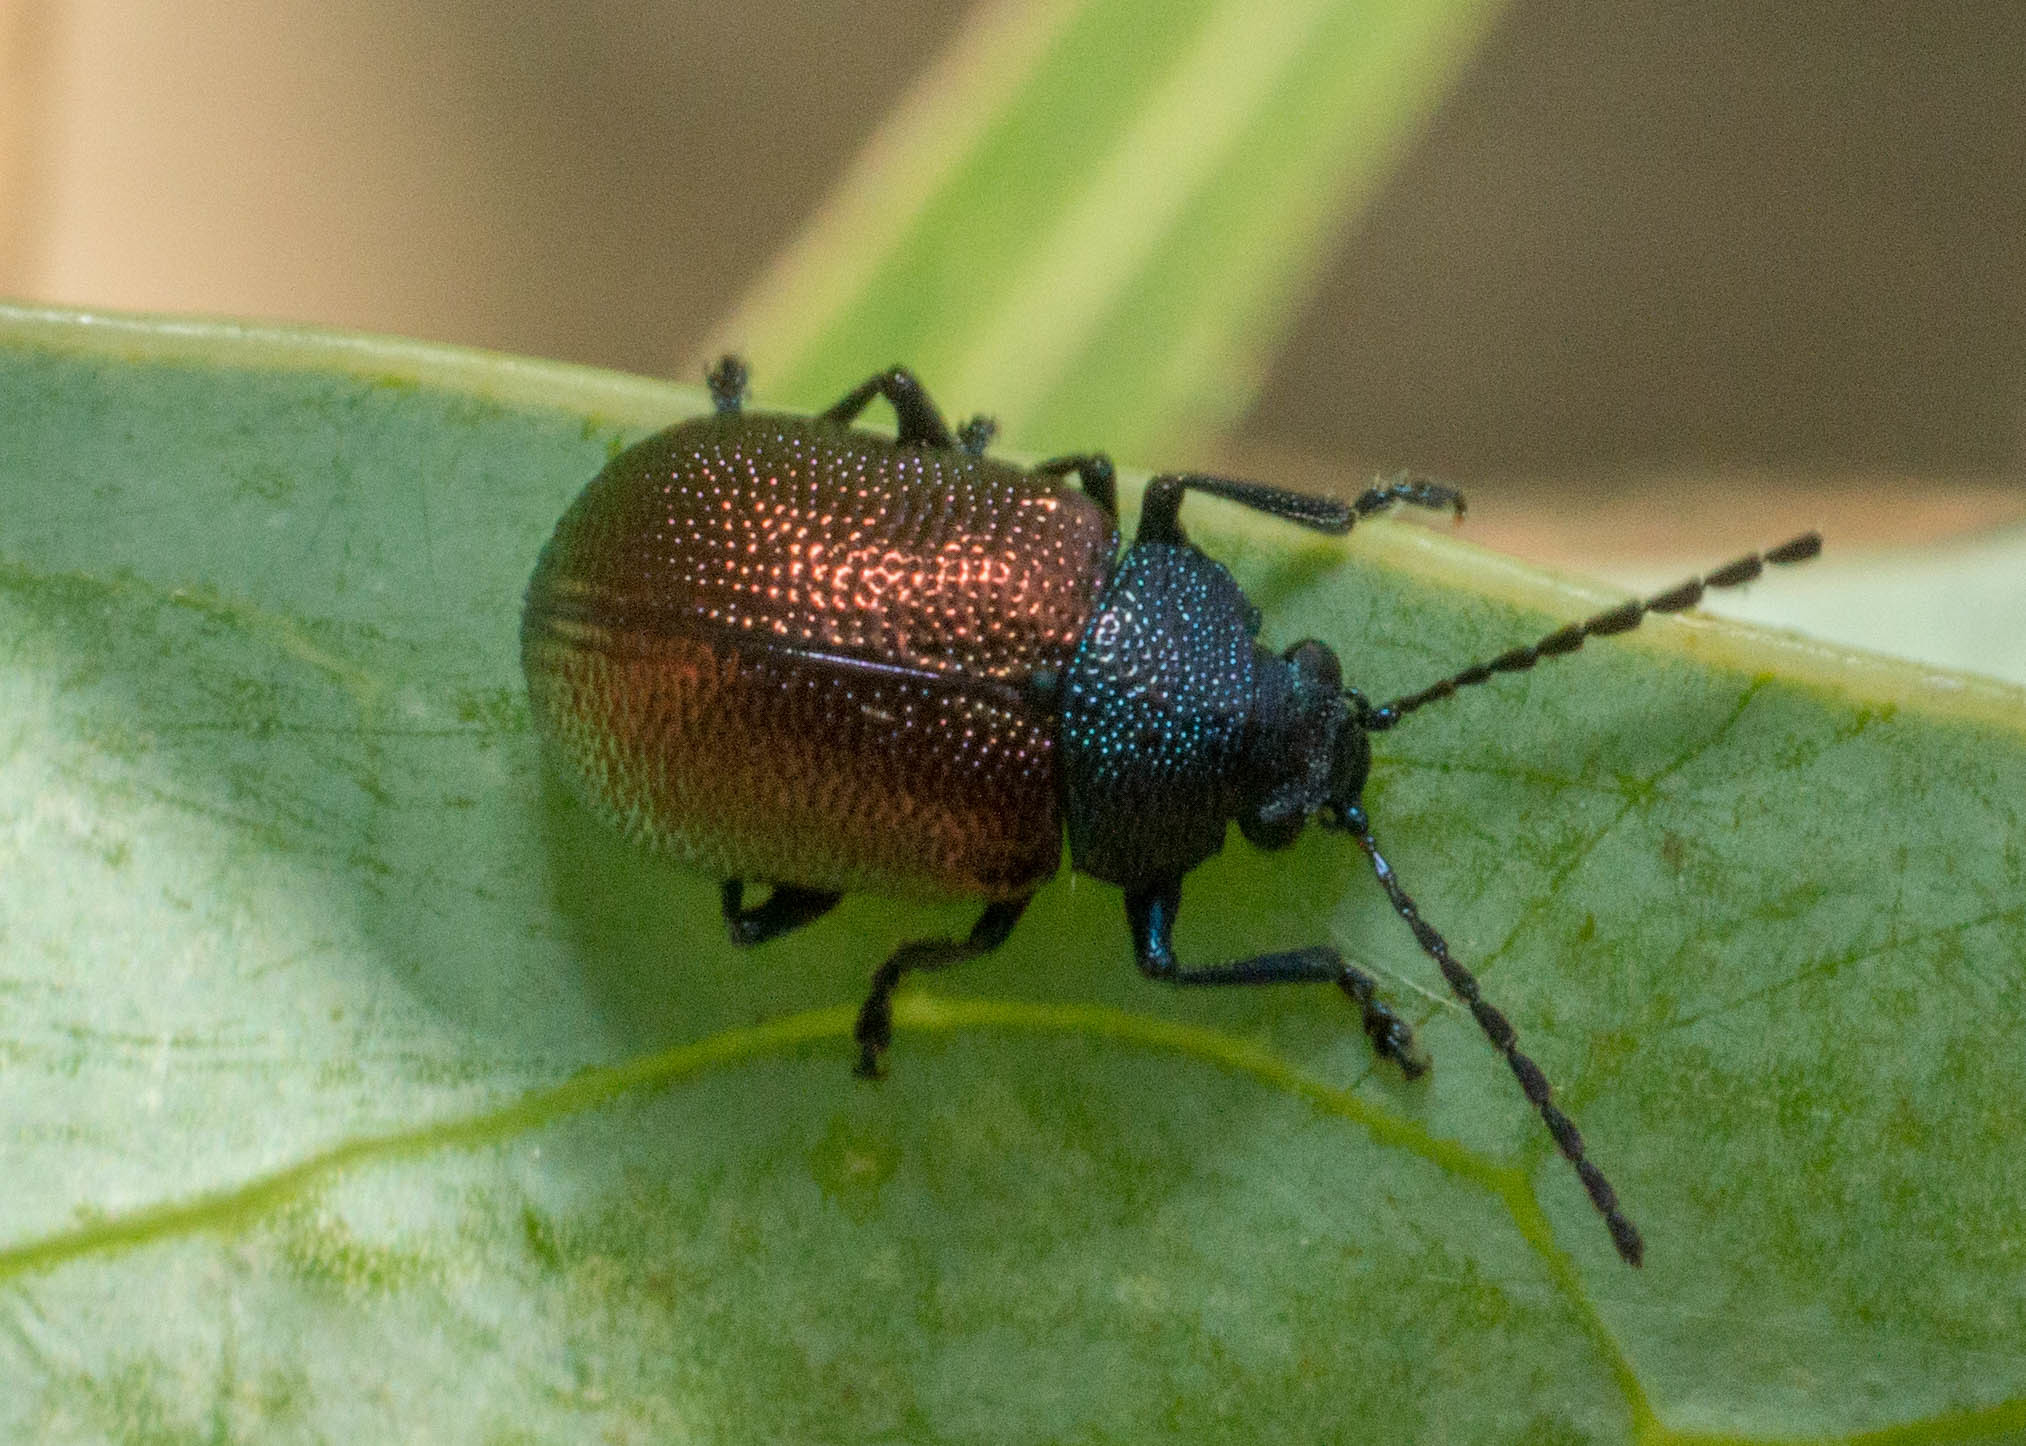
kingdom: Animalia
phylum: Arthropoda
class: Insecta
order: Coleoptera
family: Chrysomelidae
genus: Freudeita
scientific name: Freudeita
